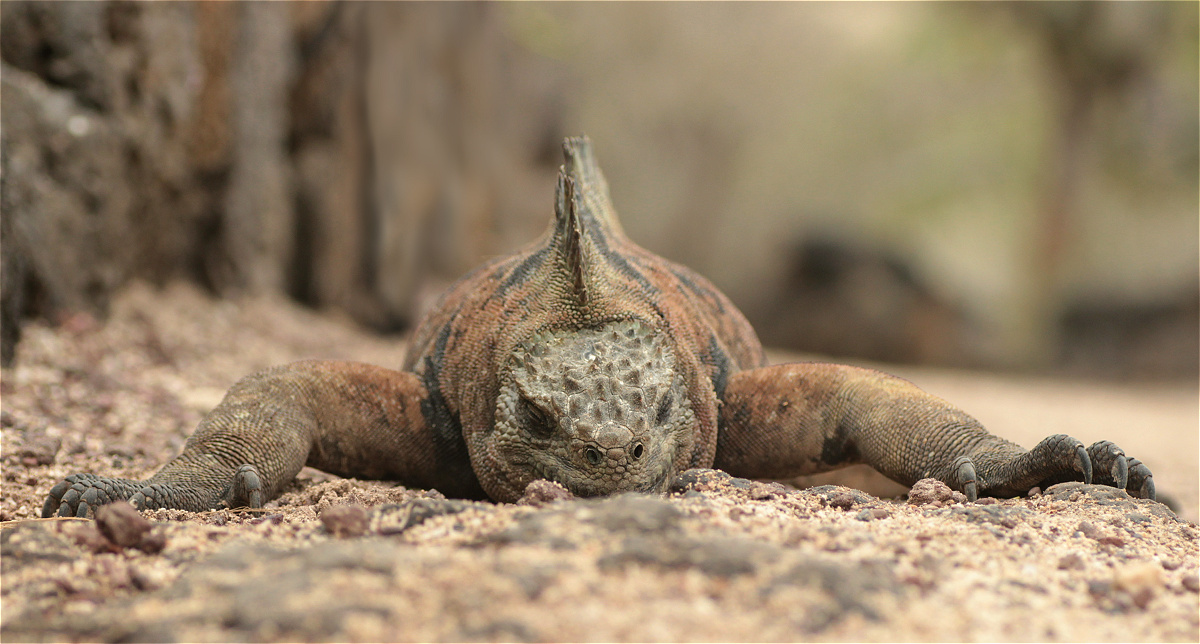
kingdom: Animalia
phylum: Chordata
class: Squamata
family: Iguanidae
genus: Amblyrhynchus
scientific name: Amblyrhynchus cristatus
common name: Marine iguana
